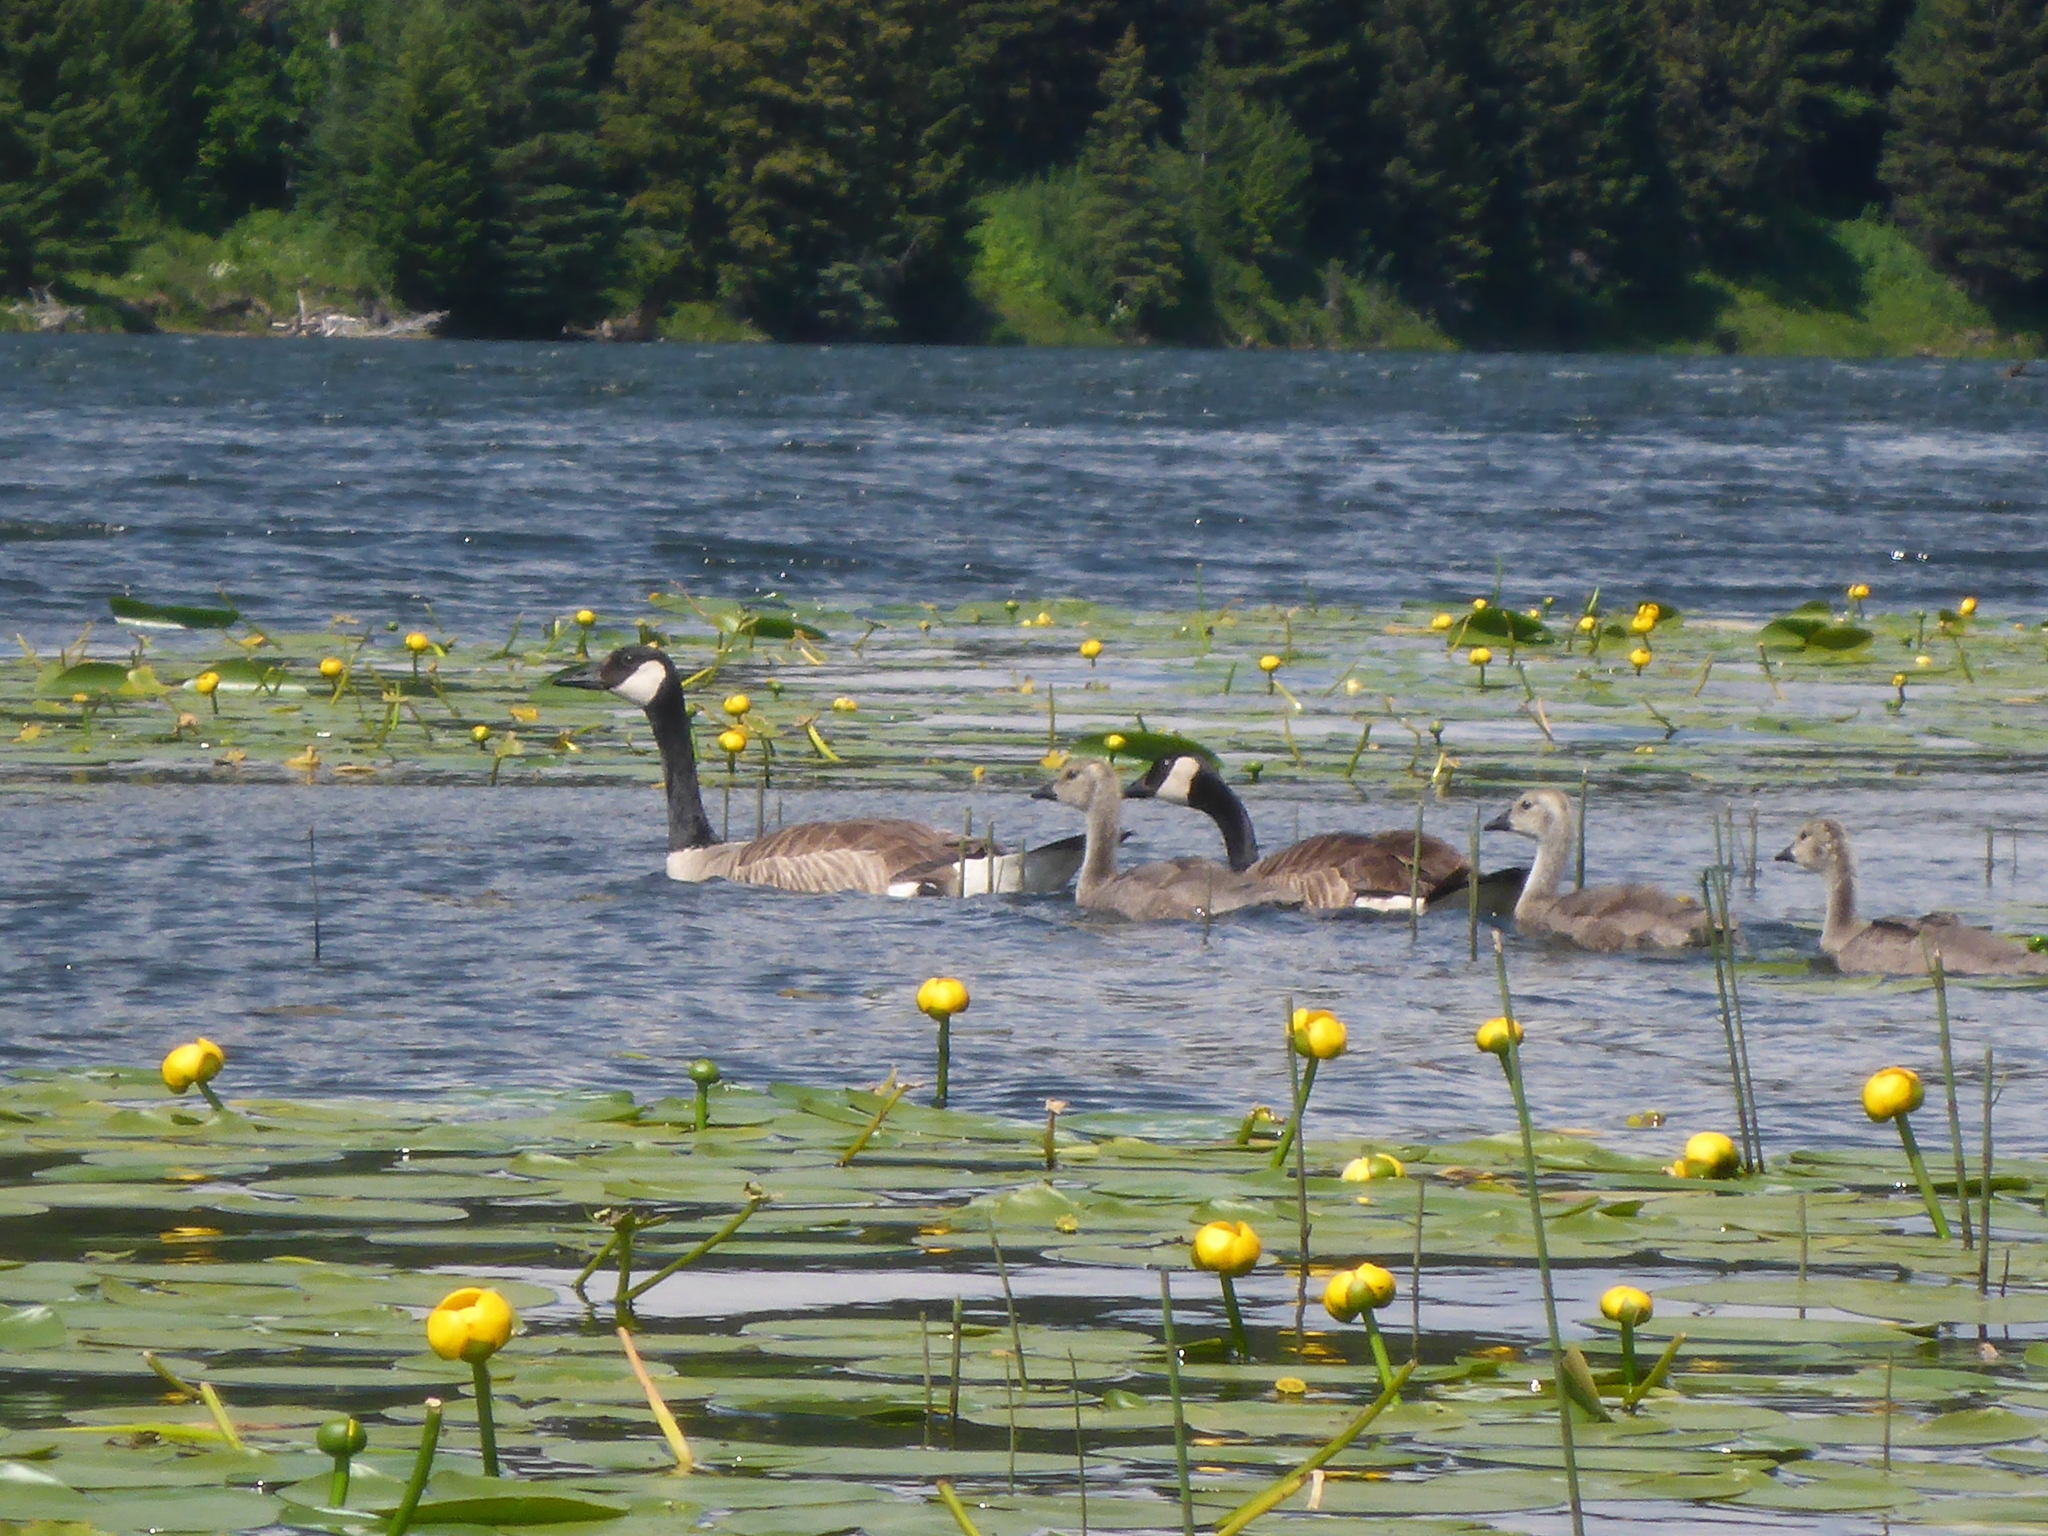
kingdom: Animalia
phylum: Chordata
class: Aves
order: Anseriformes
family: Anatidae
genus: Branta
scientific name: Branta canadensis
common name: Canada goose
